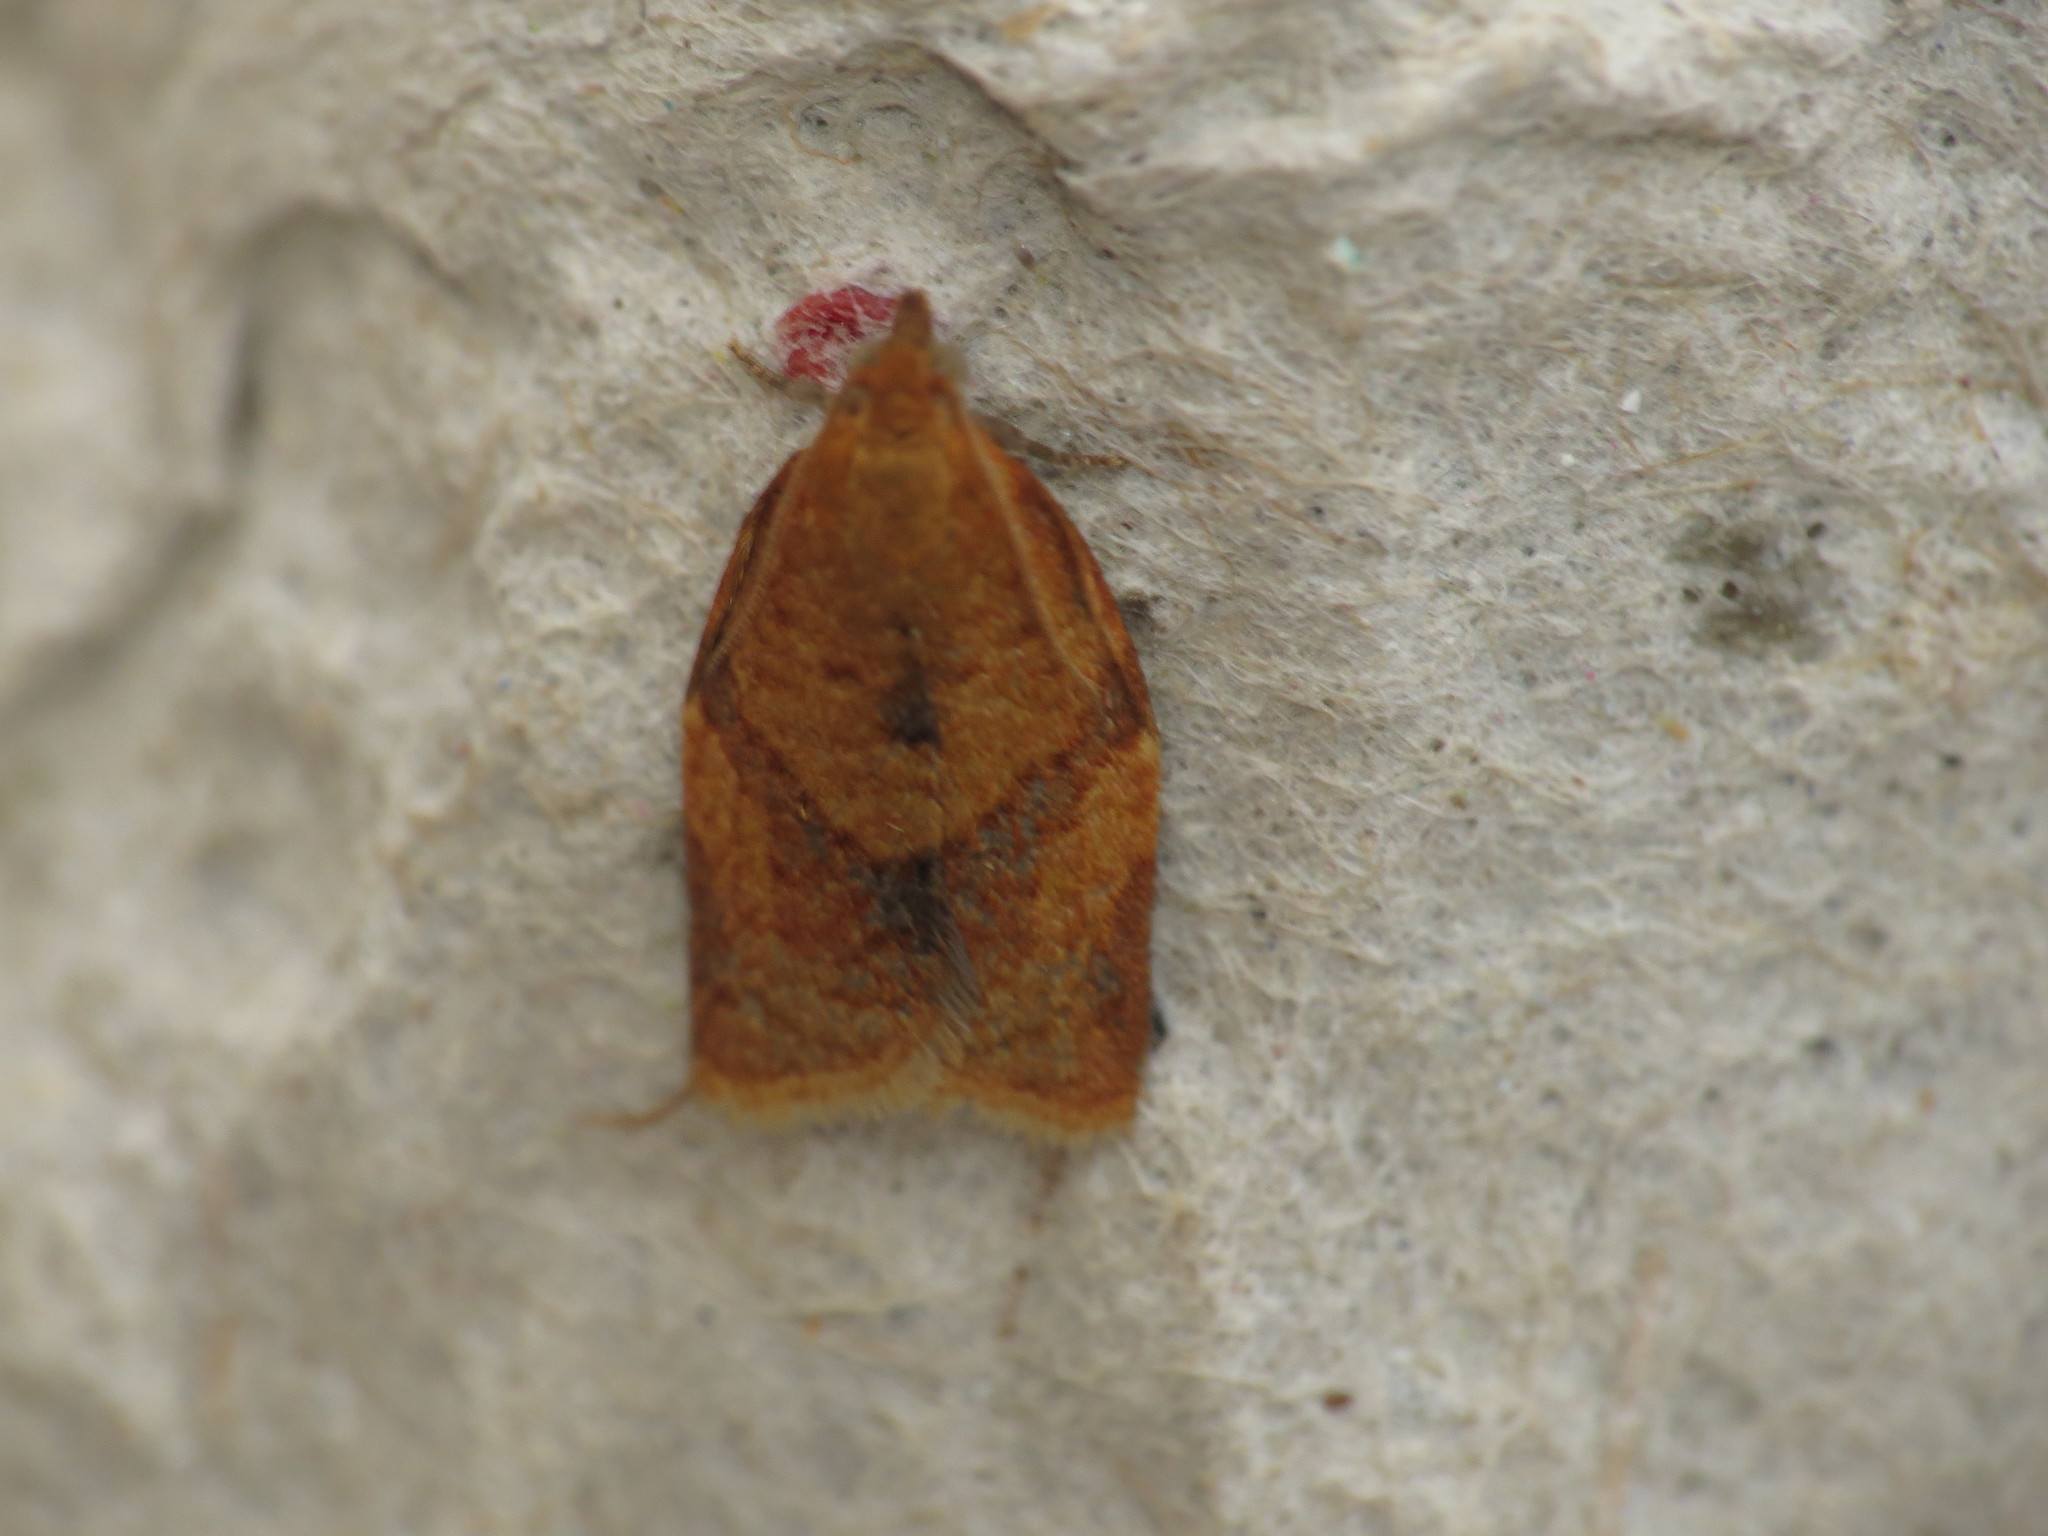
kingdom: Animalia
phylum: Arthropoda
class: Insecta
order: Lepidoptera
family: Tortricidae
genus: Clepsis
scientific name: Clepsis consimilana
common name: Privet tortrix
